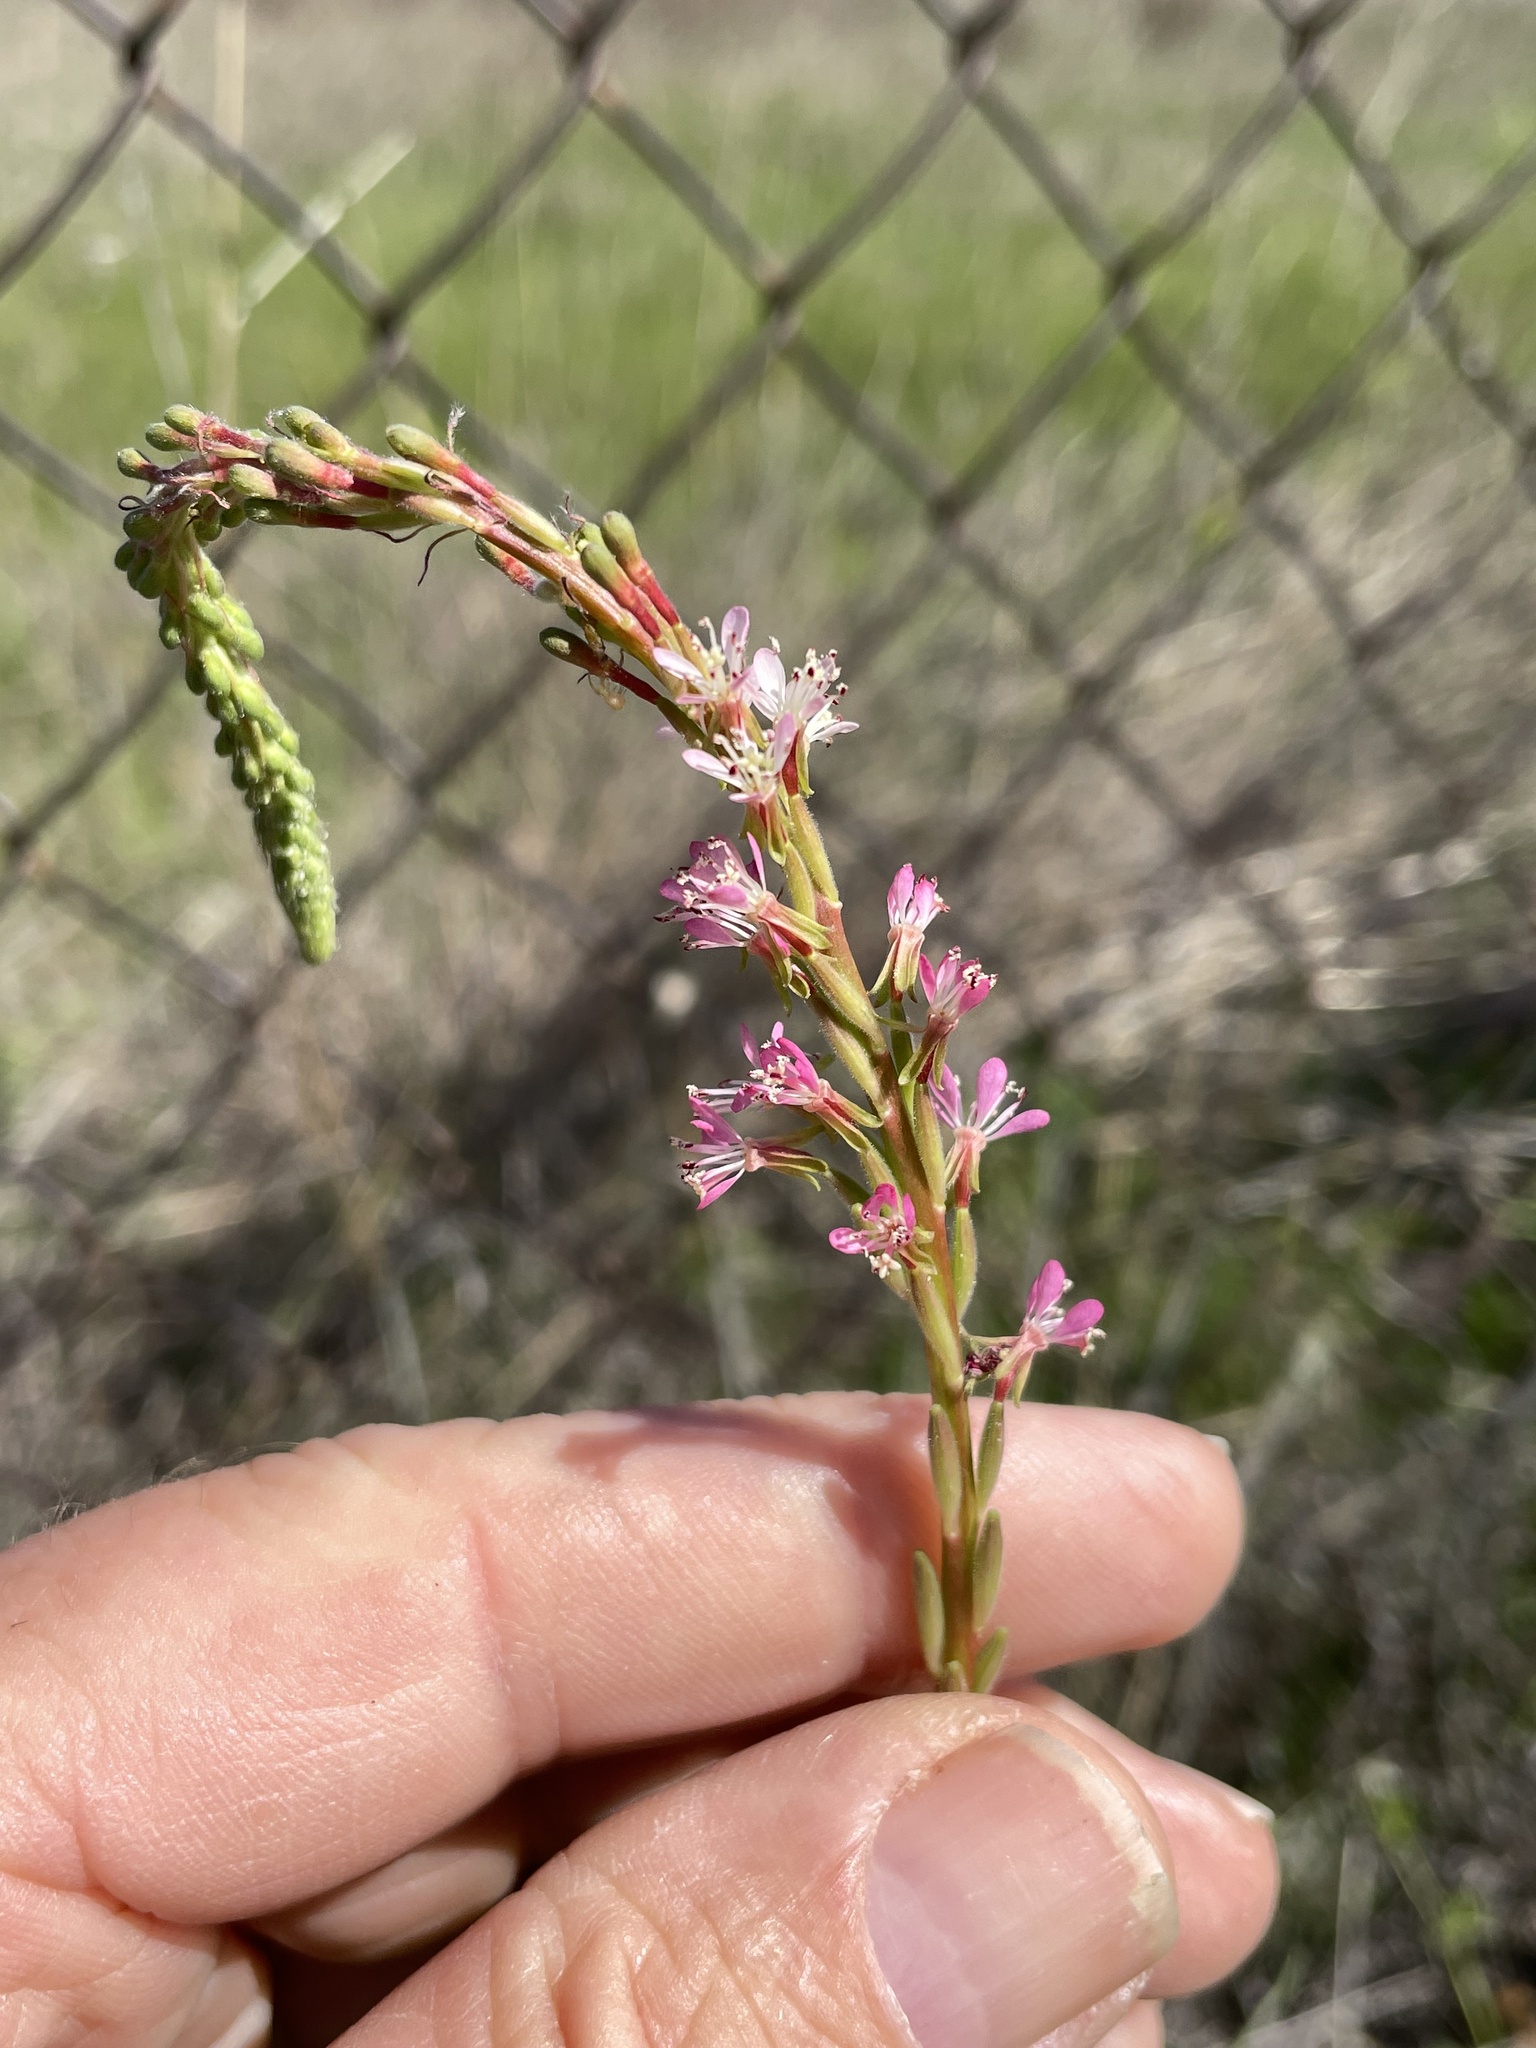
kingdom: Plantae
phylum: Tracheophyta
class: Magnoliopsida
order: Myrtales
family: Onagraceae
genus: Oenothera
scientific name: Oenothera curtiflora
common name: Velvetweed
